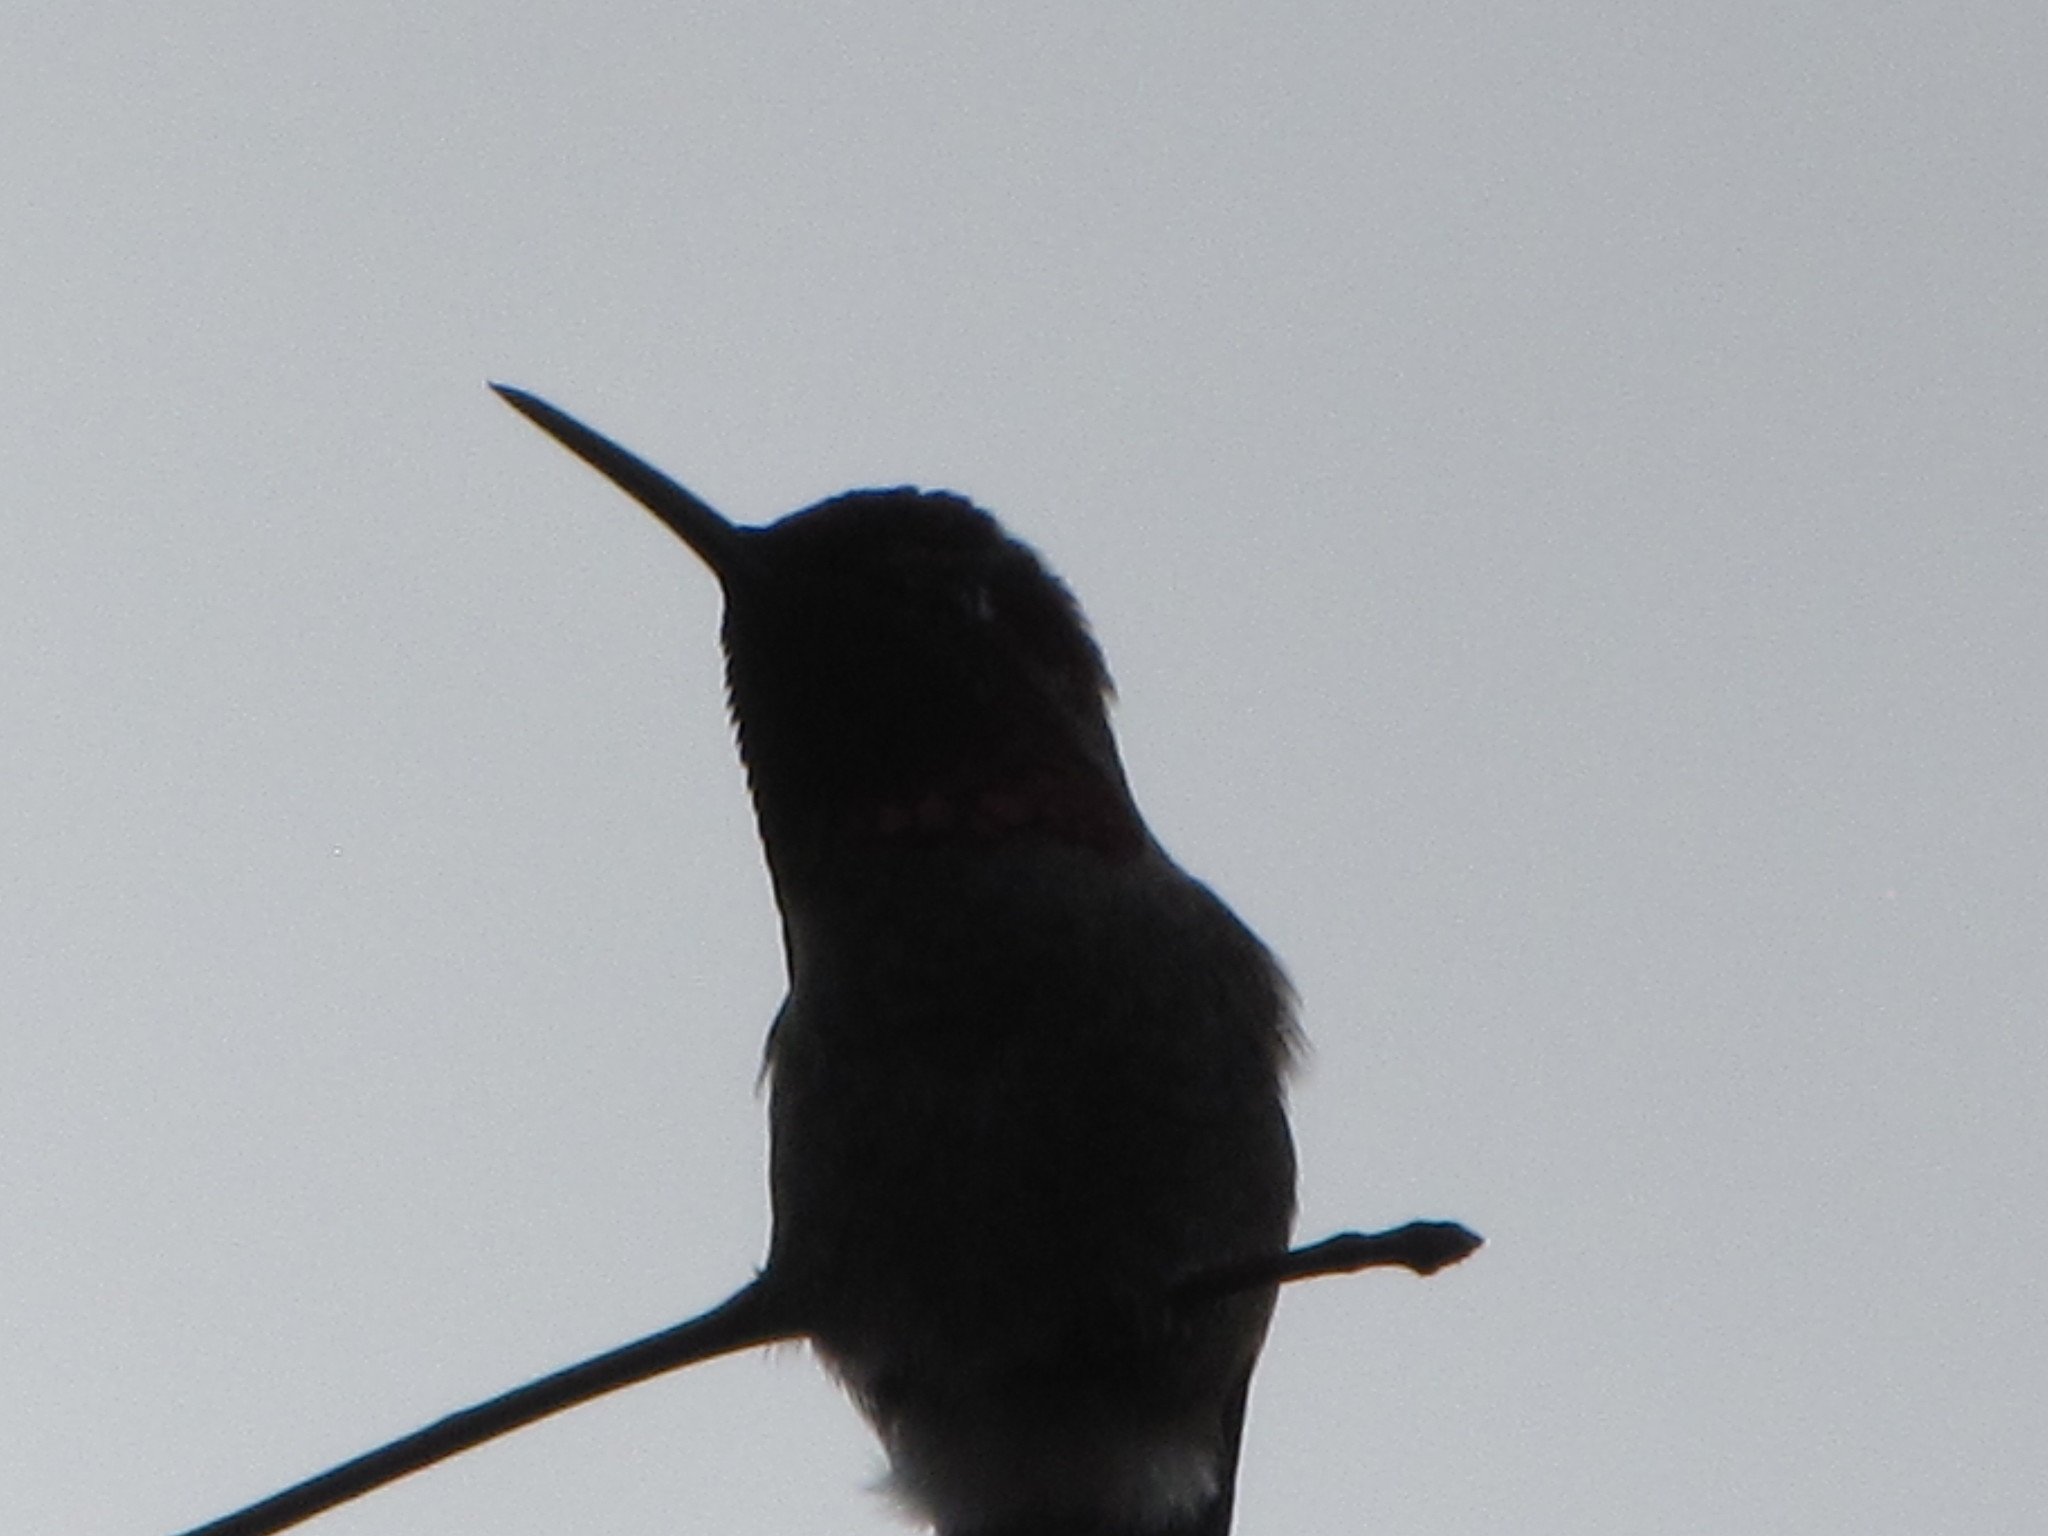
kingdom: Animalia
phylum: Chordata
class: Aves
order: Apodiformes
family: Trochilidae
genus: Calypte
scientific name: Calypte anna
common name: Anna's hummingbird
